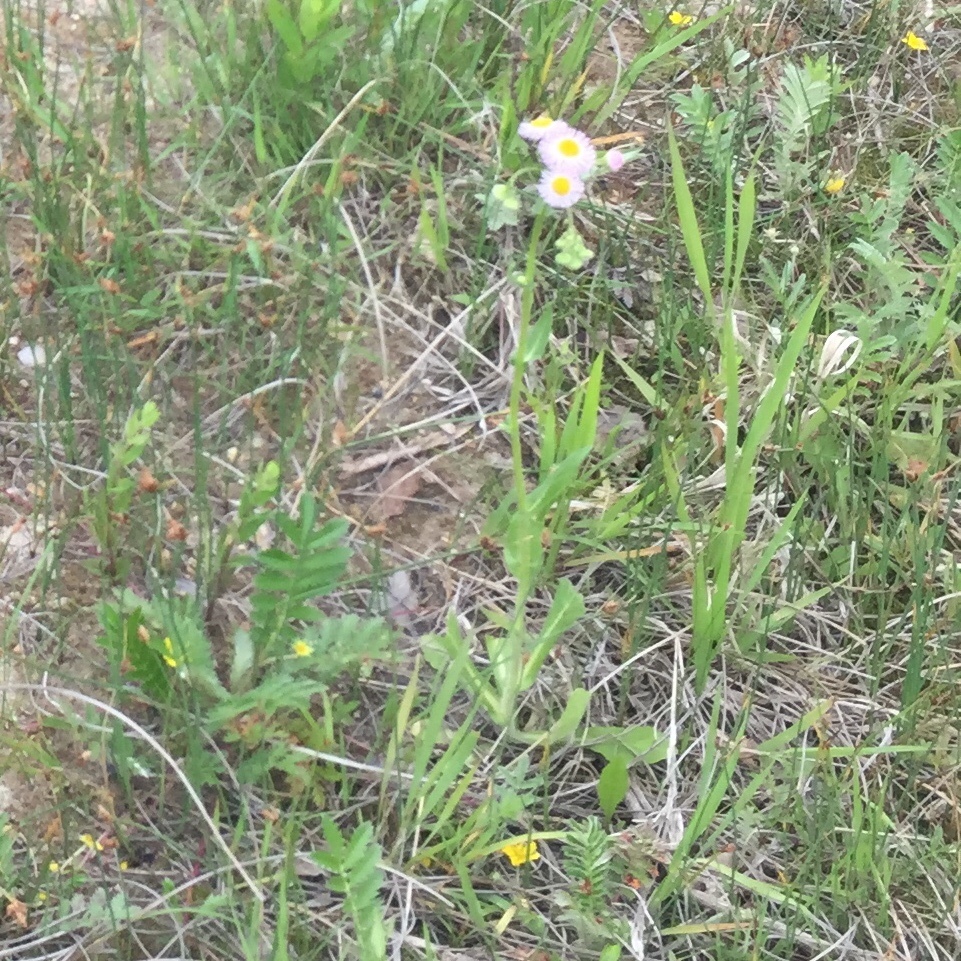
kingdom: Plantae
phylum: Tracheophyta
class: Magnoliopsida
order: Asterales
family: Asteraceae
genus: Erigeron
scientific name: Erigeron philadelphicus
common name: Robin's-plantain
